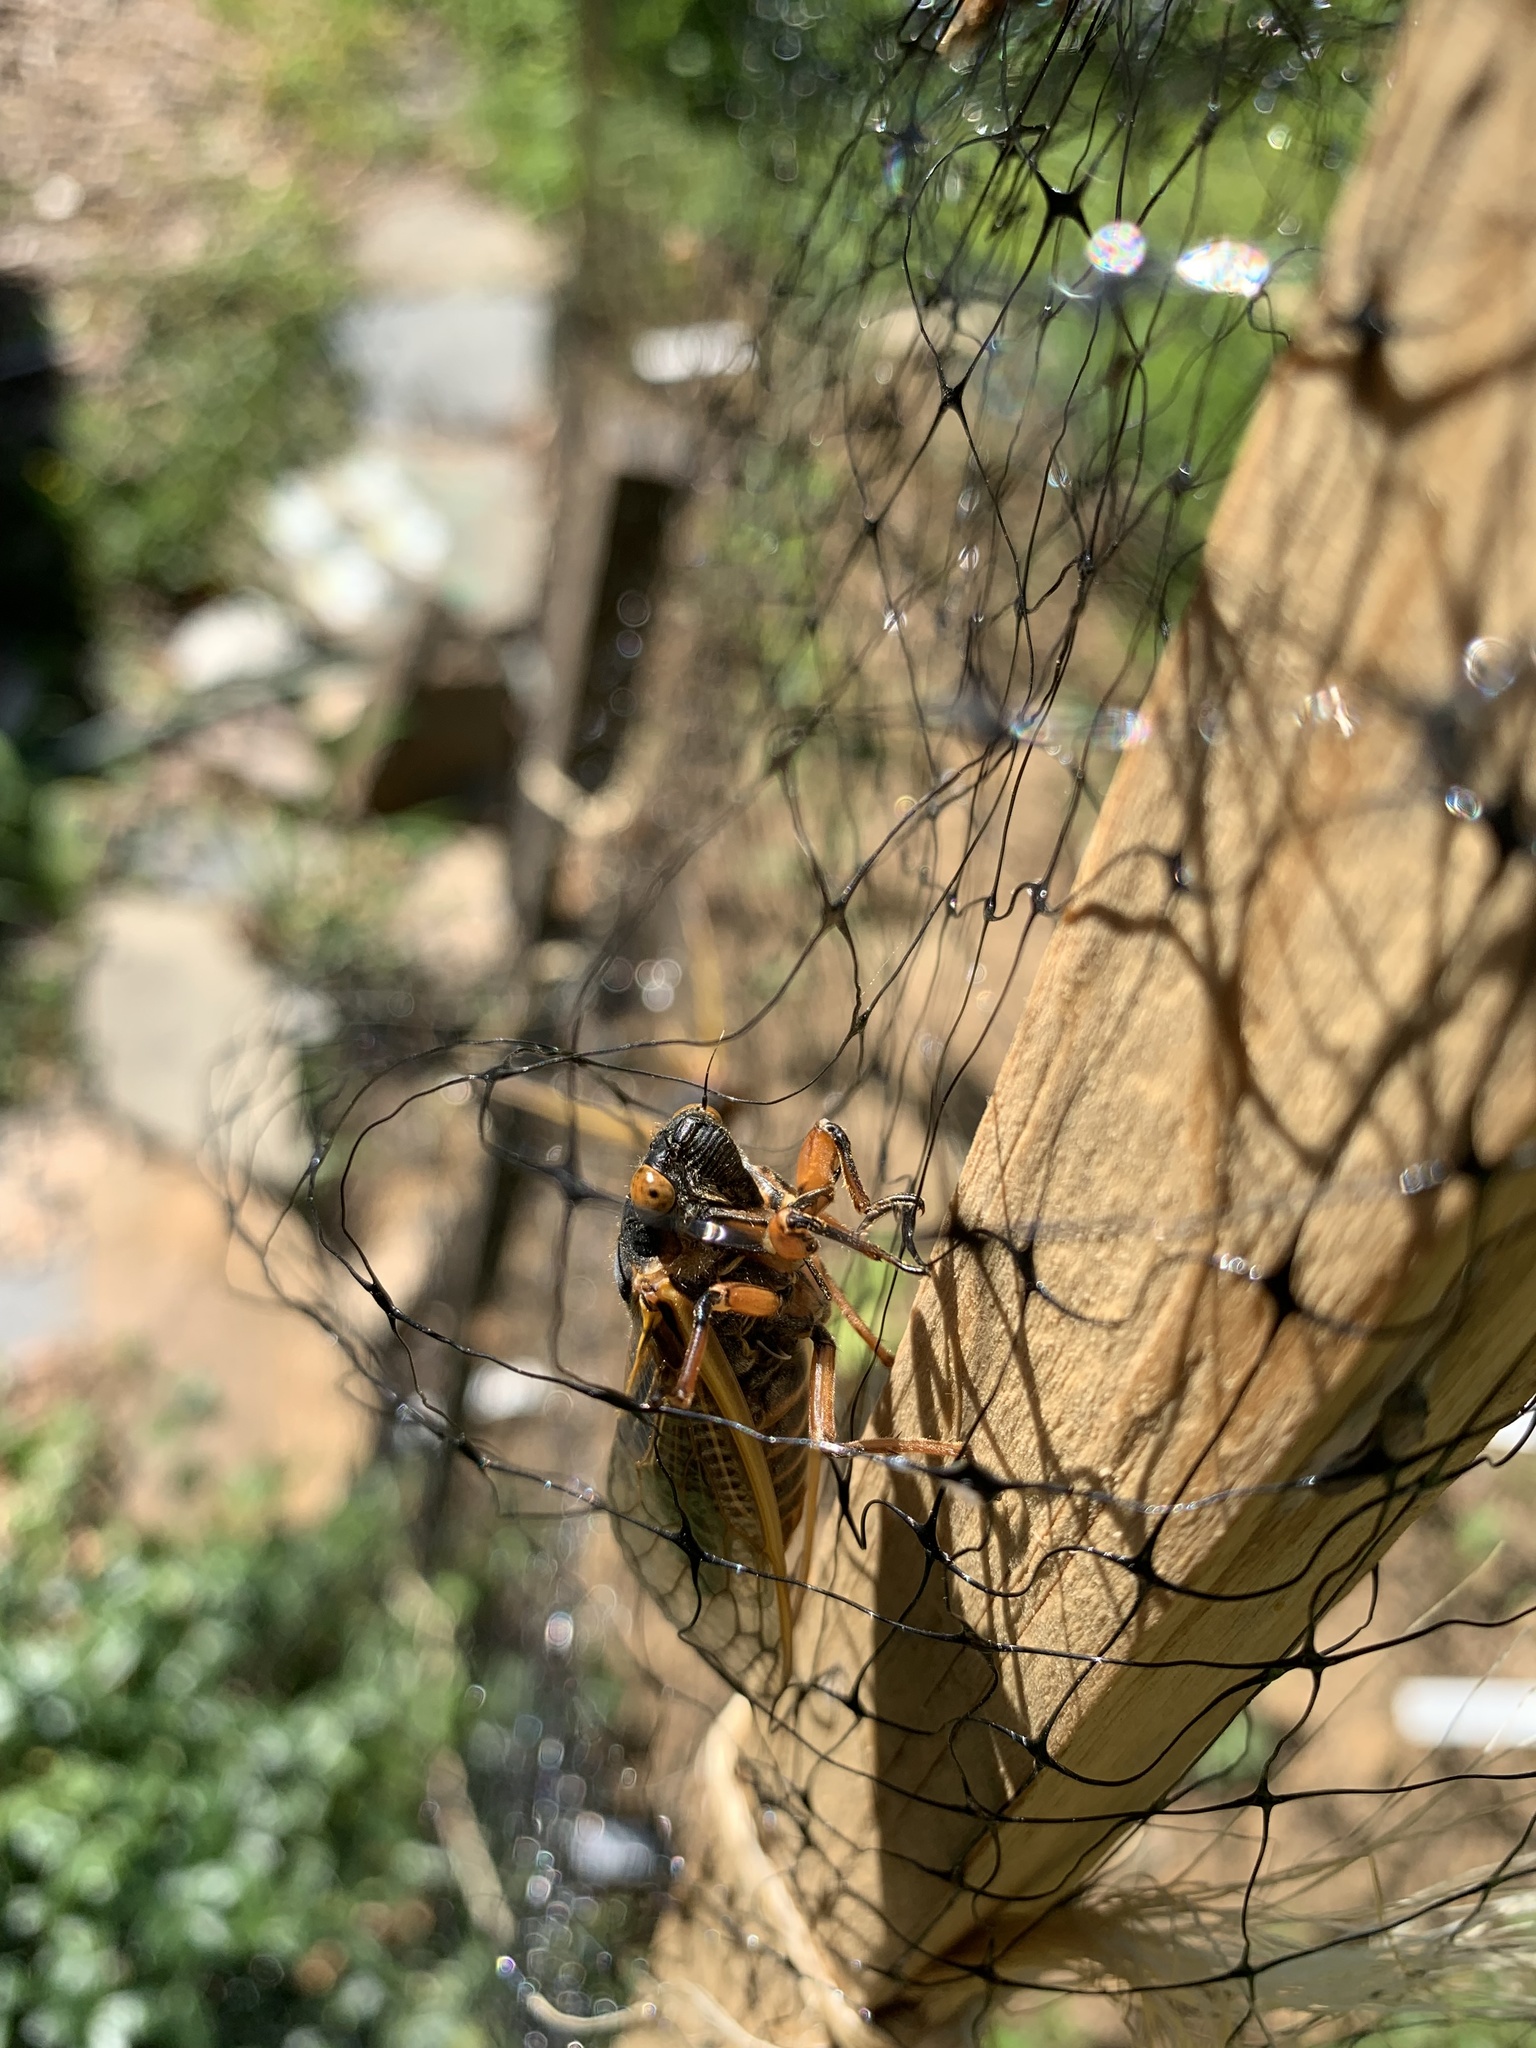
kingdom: Animalia
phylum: Arthropoda
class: Insecta
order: Hemiptera
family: Cicadidae
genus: Magicicada
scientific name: Magicicada septendecim
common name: Periodical cicada
